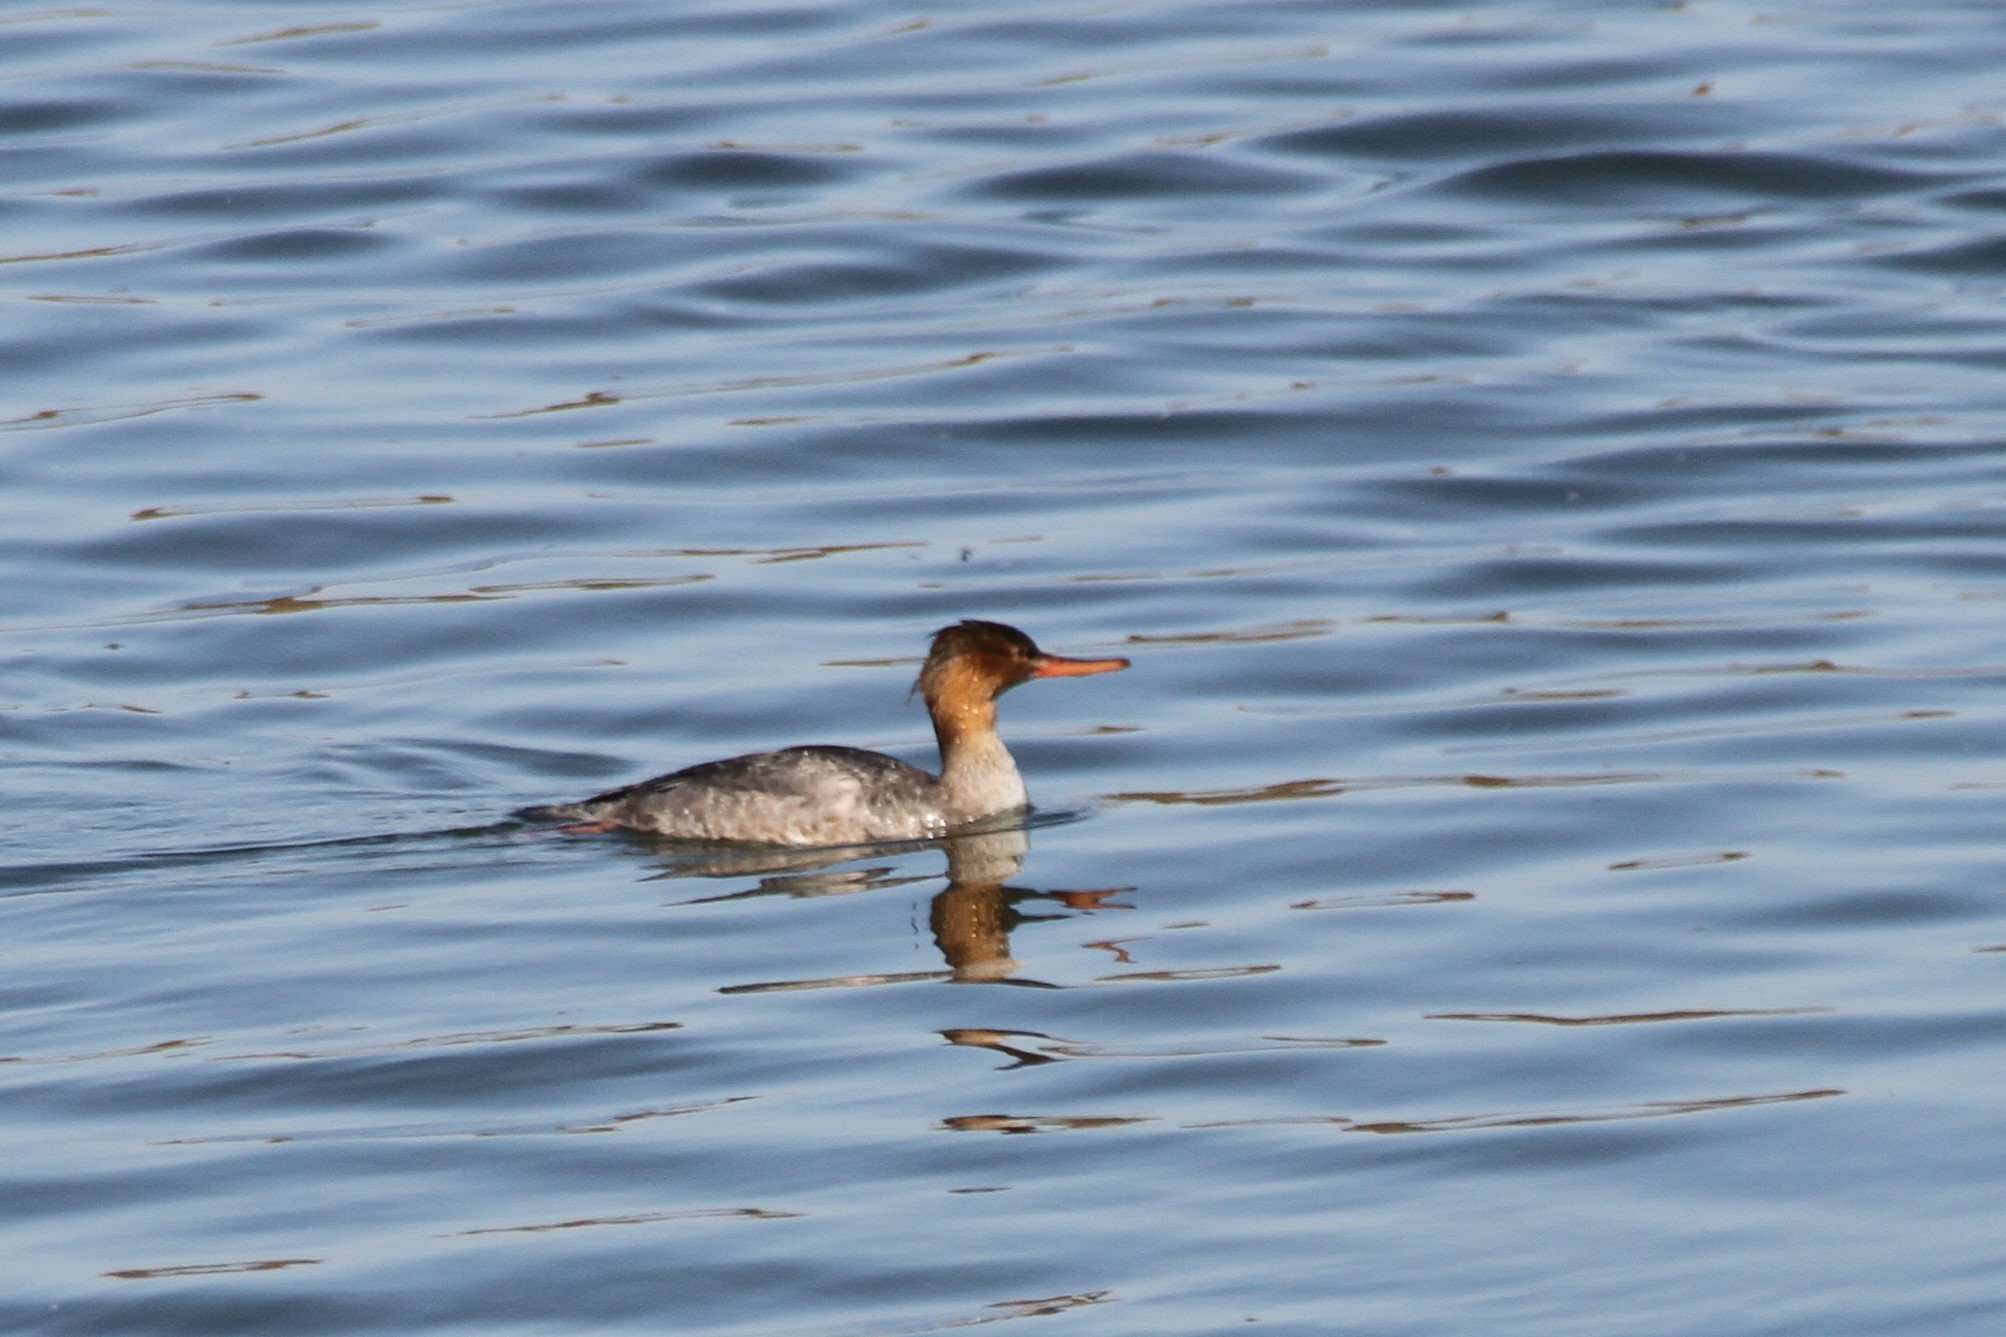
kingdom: Animalia
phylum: Chordata
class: Aves
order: Anseriformes
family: Anatidae
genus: Mergus
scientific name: Mergus serrator
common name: Red-breasted merganser
